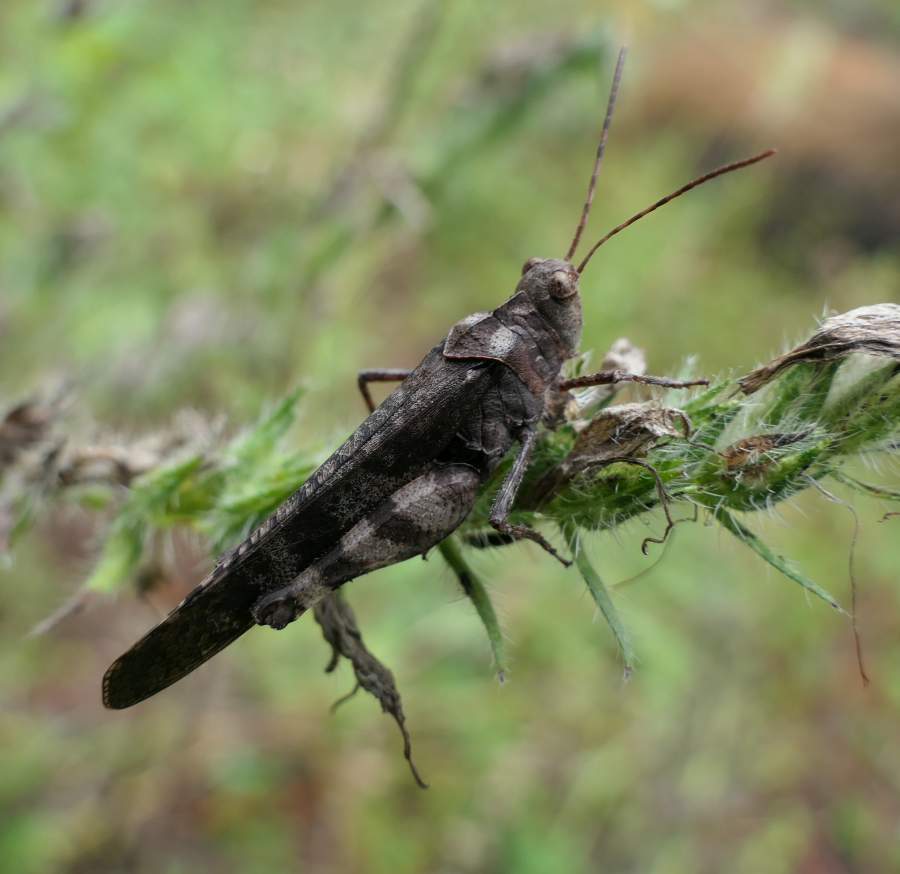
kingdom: Animalia
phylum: Arthropoda
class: Insecta
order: Orthoptera
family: Acrididae
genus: Spharagemon
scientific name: Spharagemon bolli
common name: Boll's grasshopper
